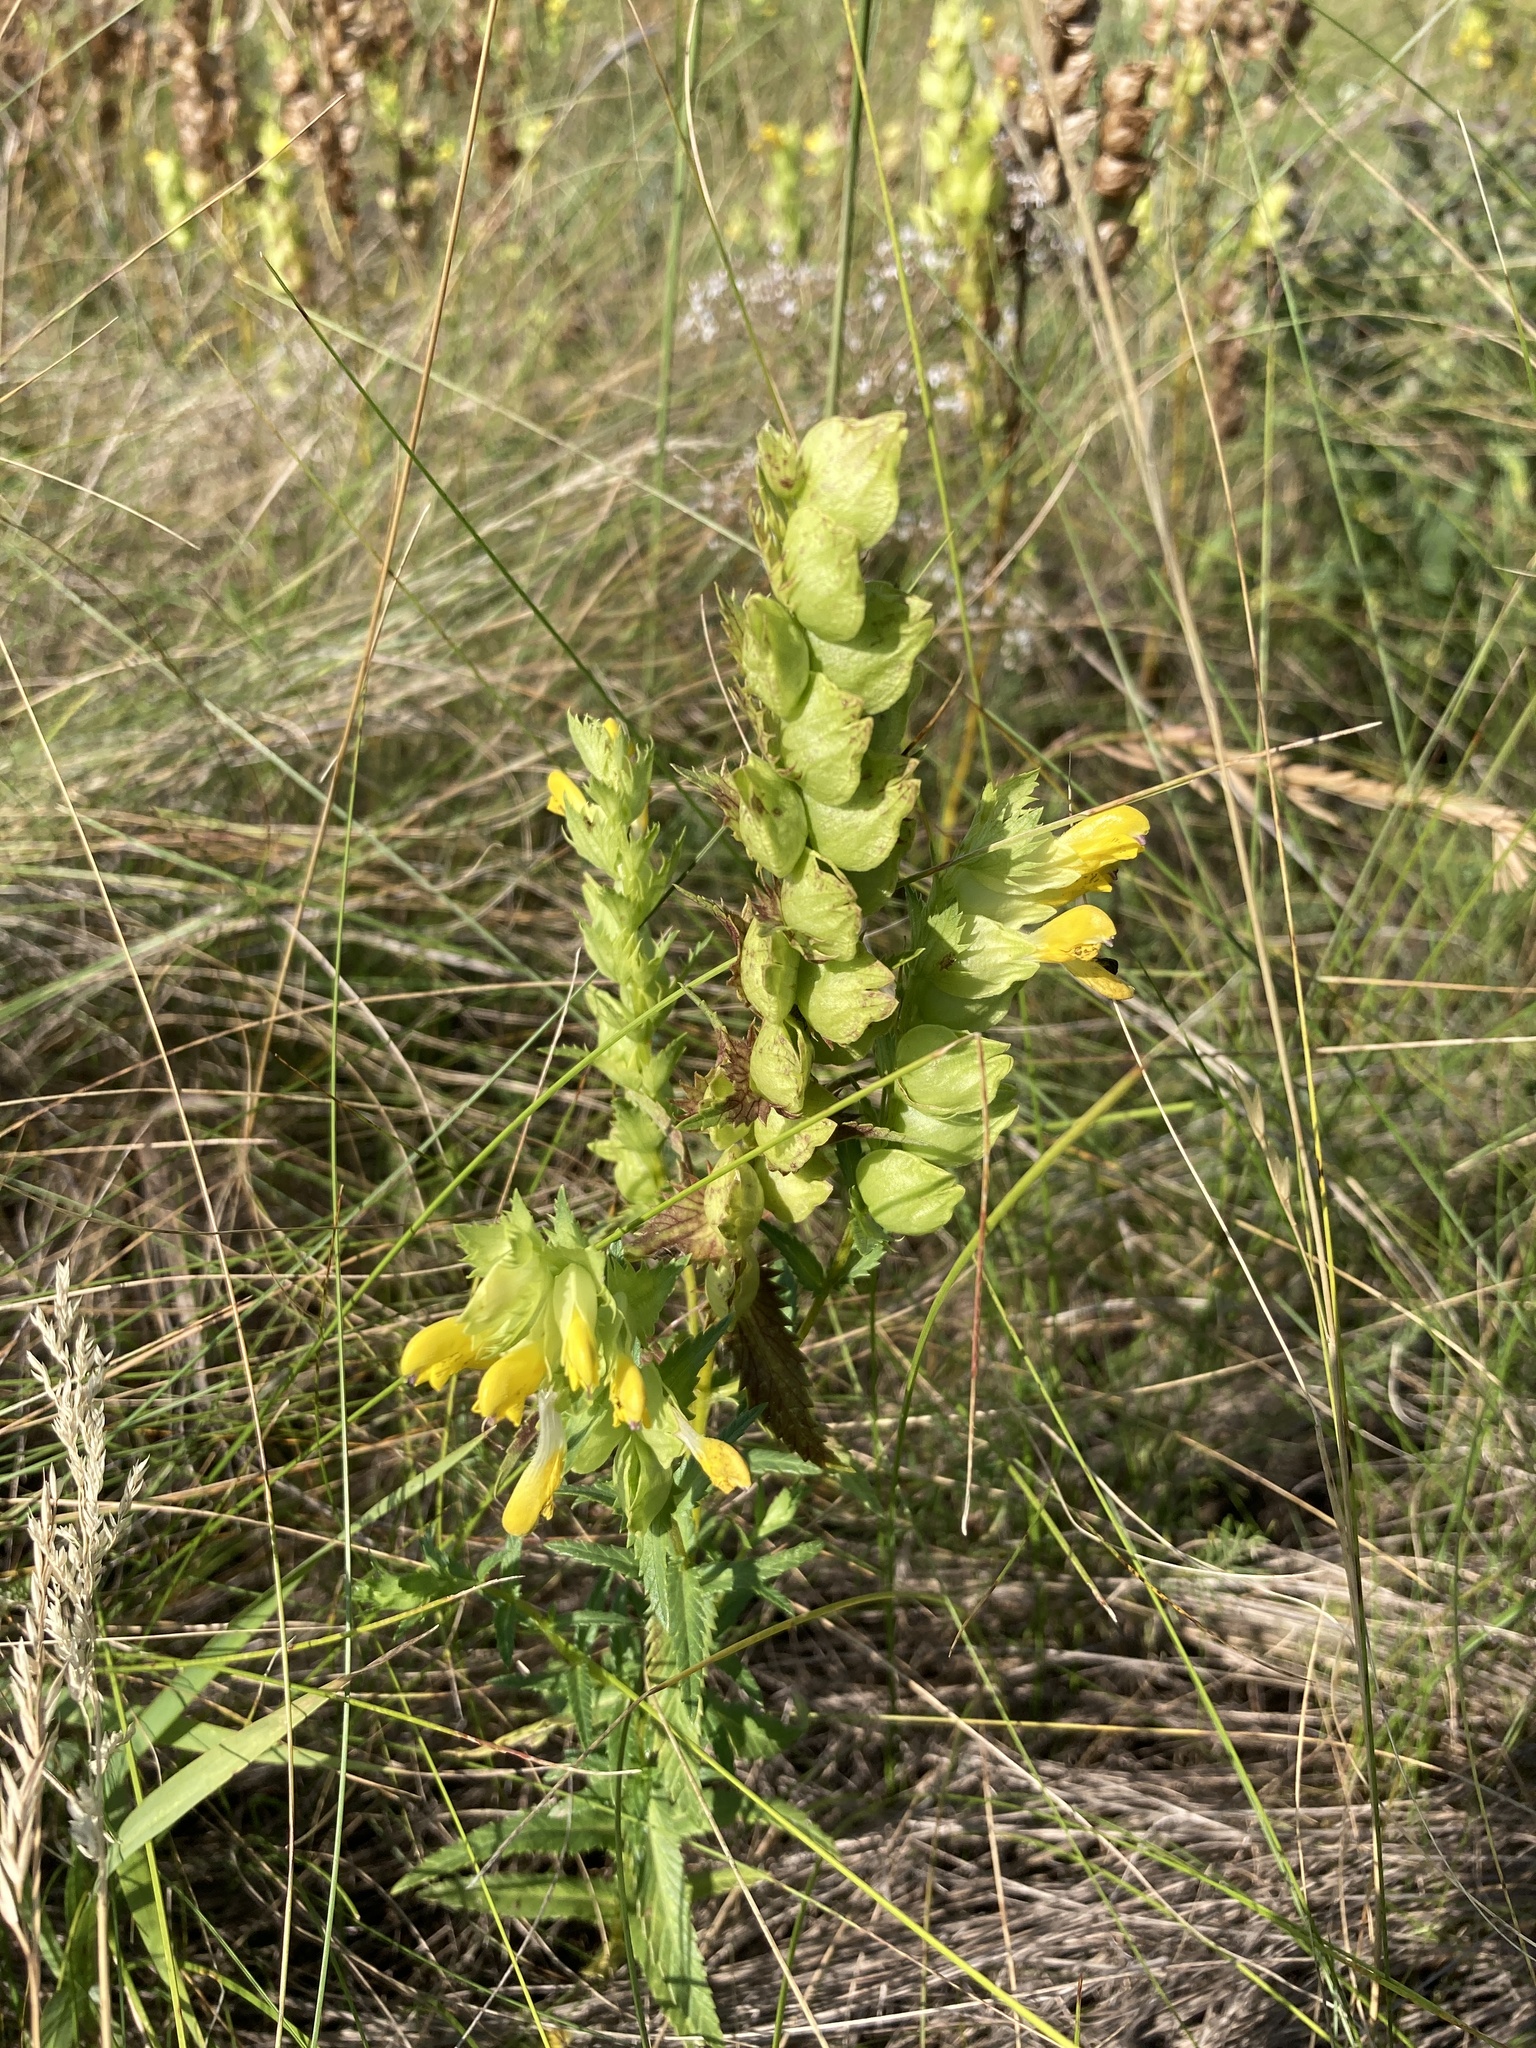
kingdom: Plantae
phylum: Tracheophyta
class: Magnoliopsida
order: Lamiales
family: Orobanchaceae
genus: Rhinanthus
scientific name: Rhinanthus serotinus
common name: Late-flowering yellow rattle
